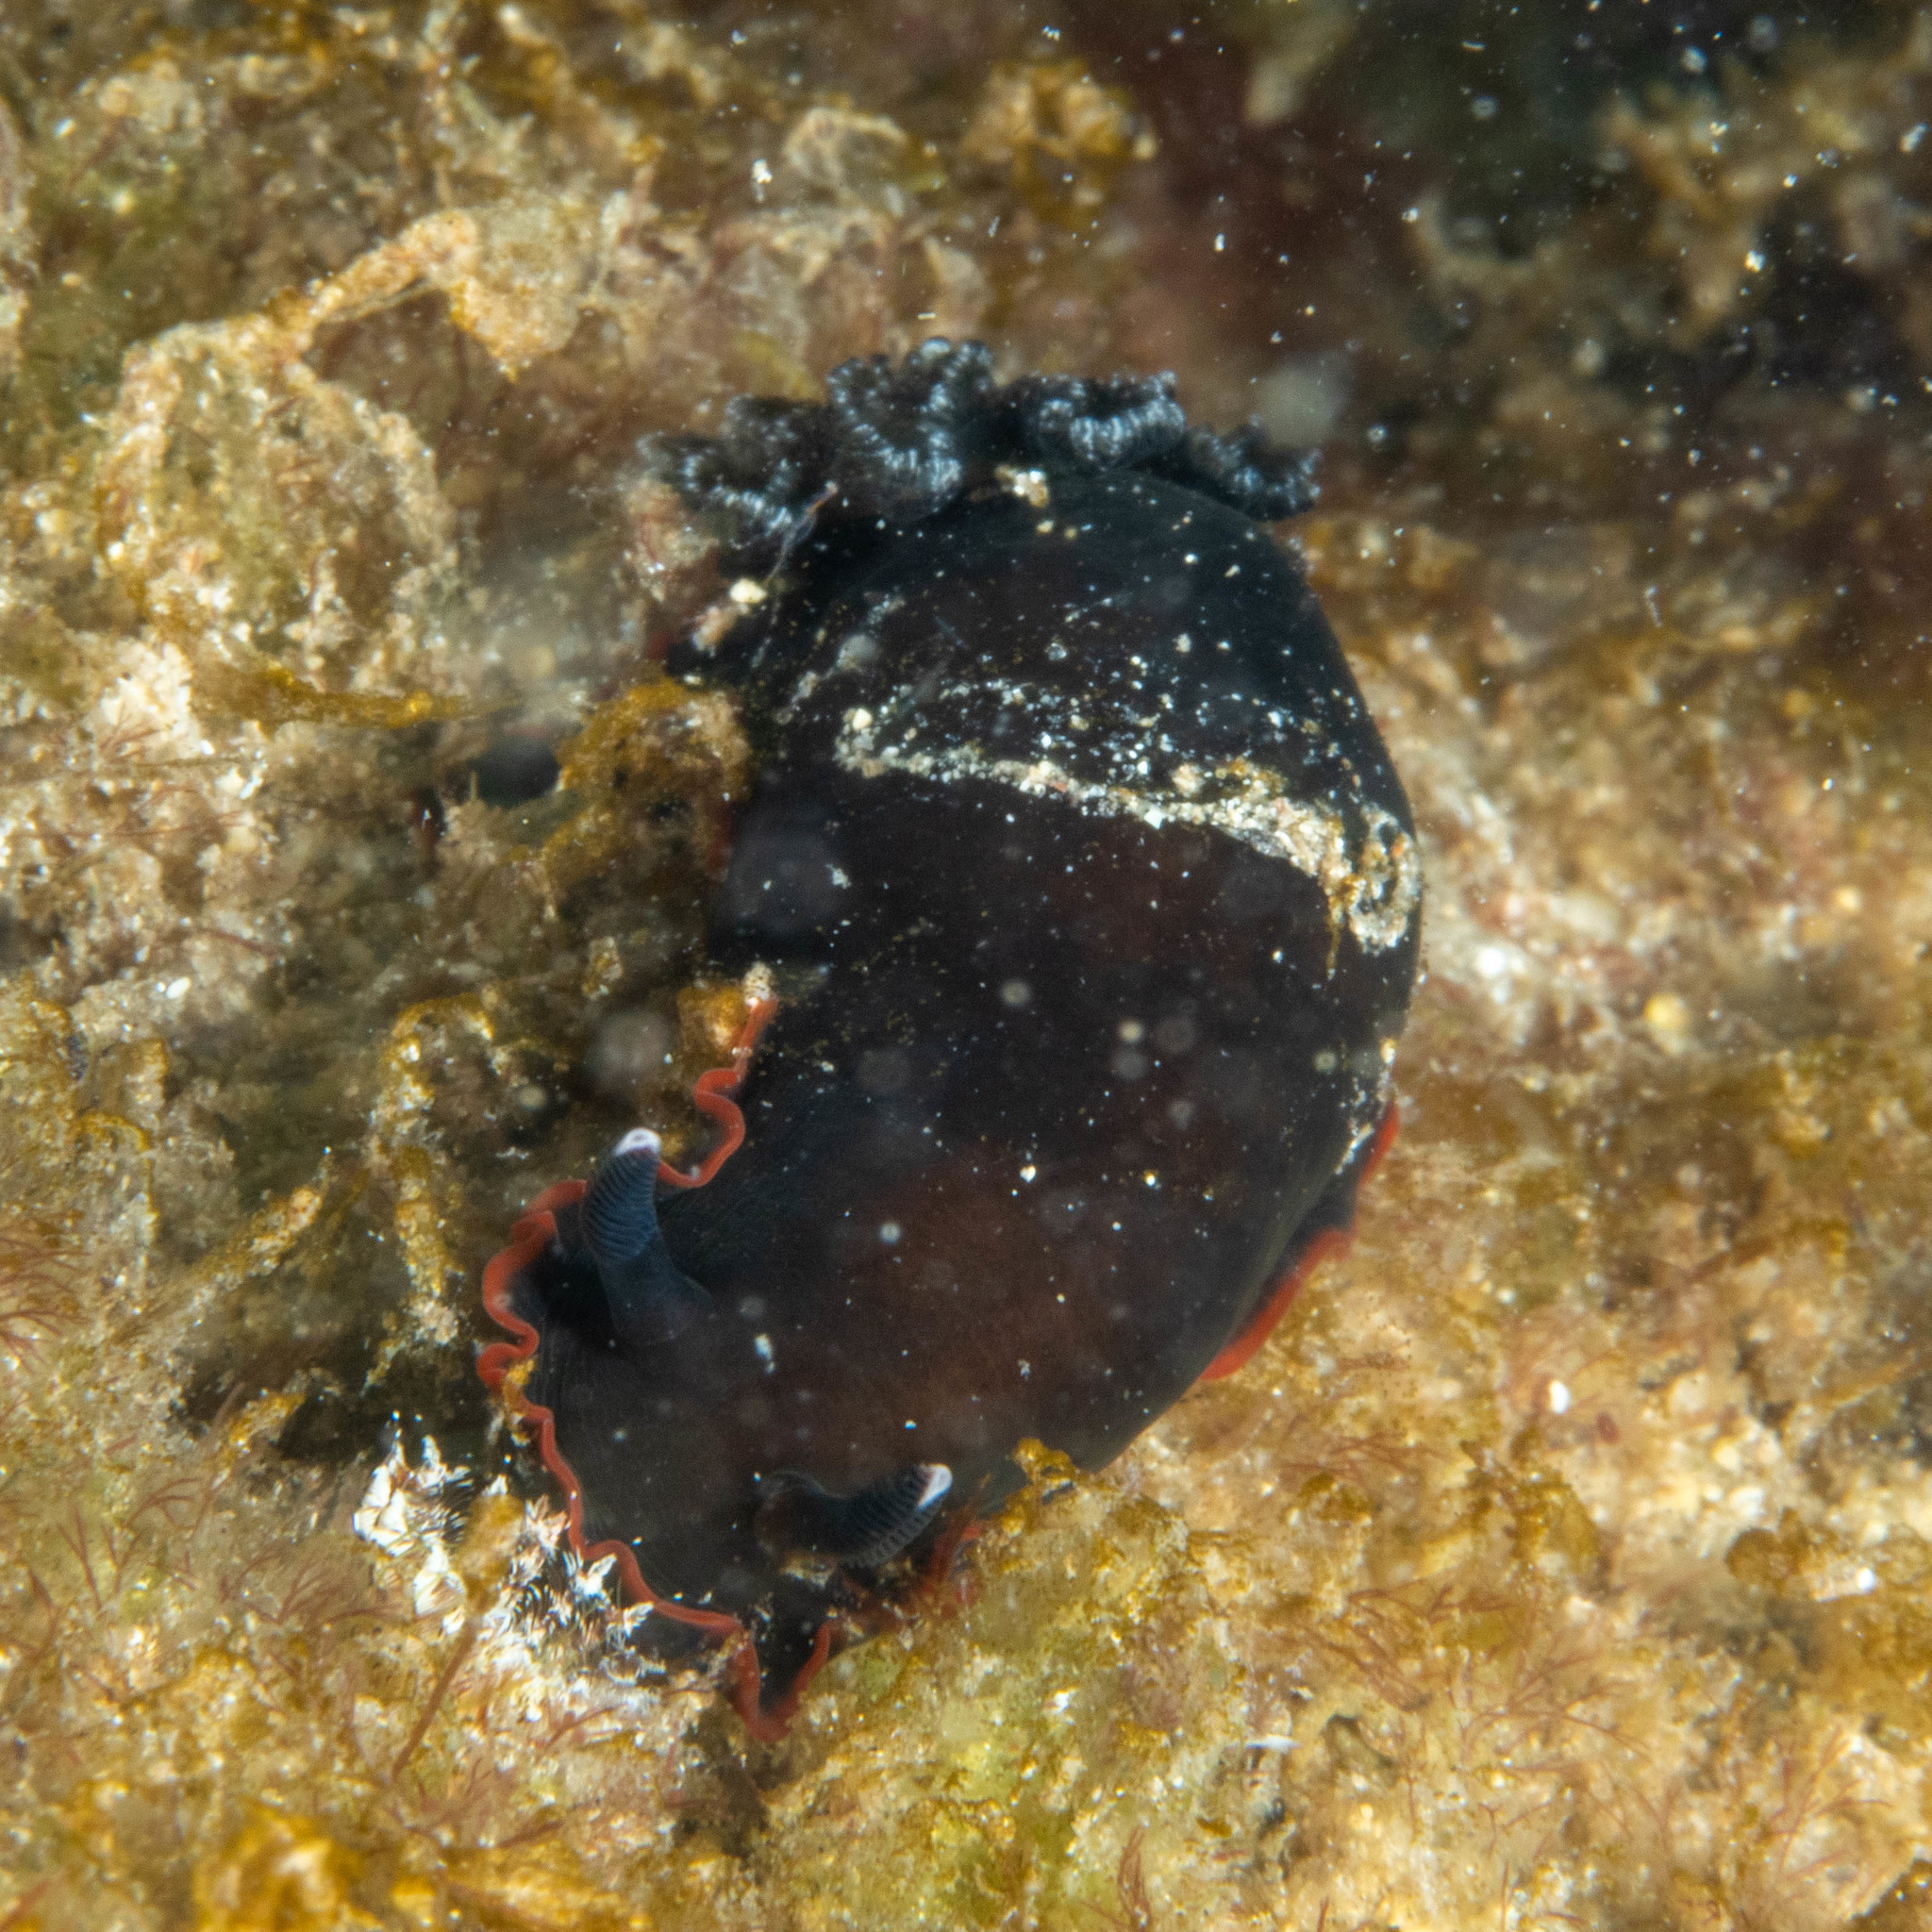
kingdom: Animalia
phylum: Mollusca
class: Gastropoda
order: Nudibranchia
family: Dendrodorididae
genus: Dendrodoris
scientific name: Dendrodoris arborescens
